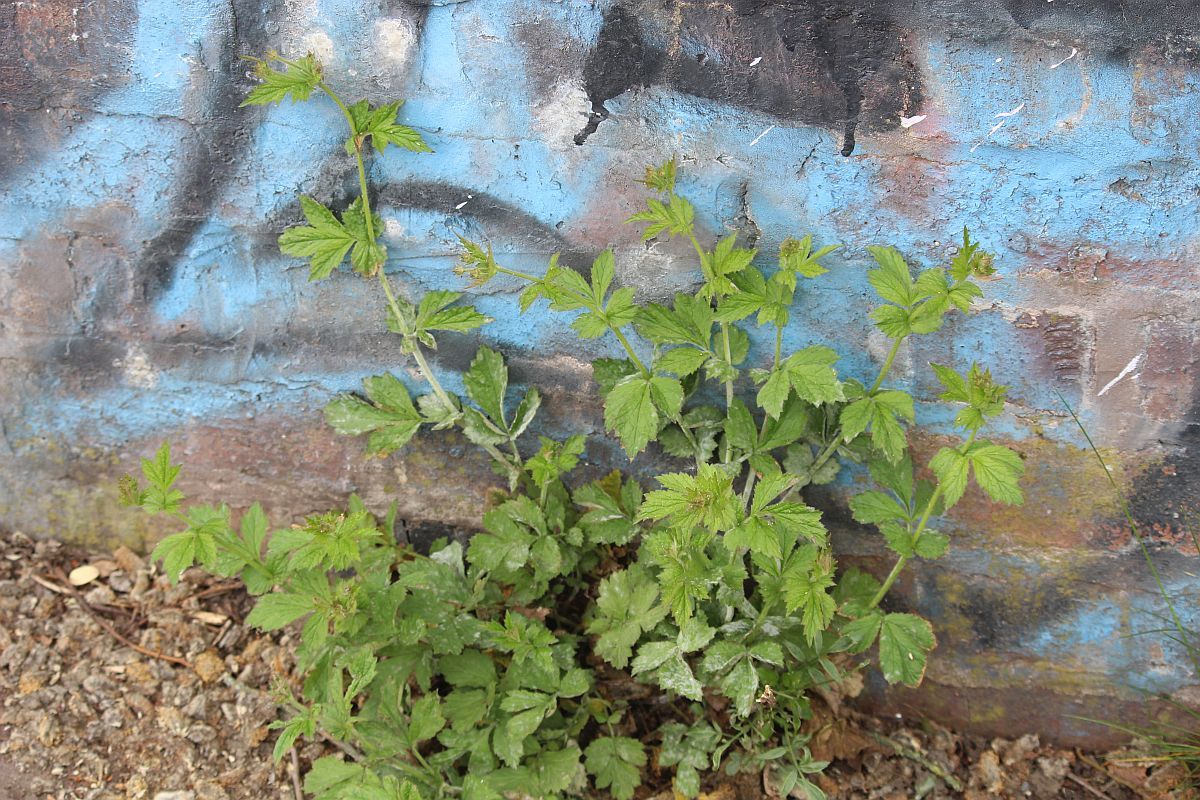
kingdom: Plantae
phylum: Tracheophyta
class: Magnoliopsida
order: Rosales
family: Rosaceae
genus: Geum
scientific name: Geum urbanum
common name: Wood avens
